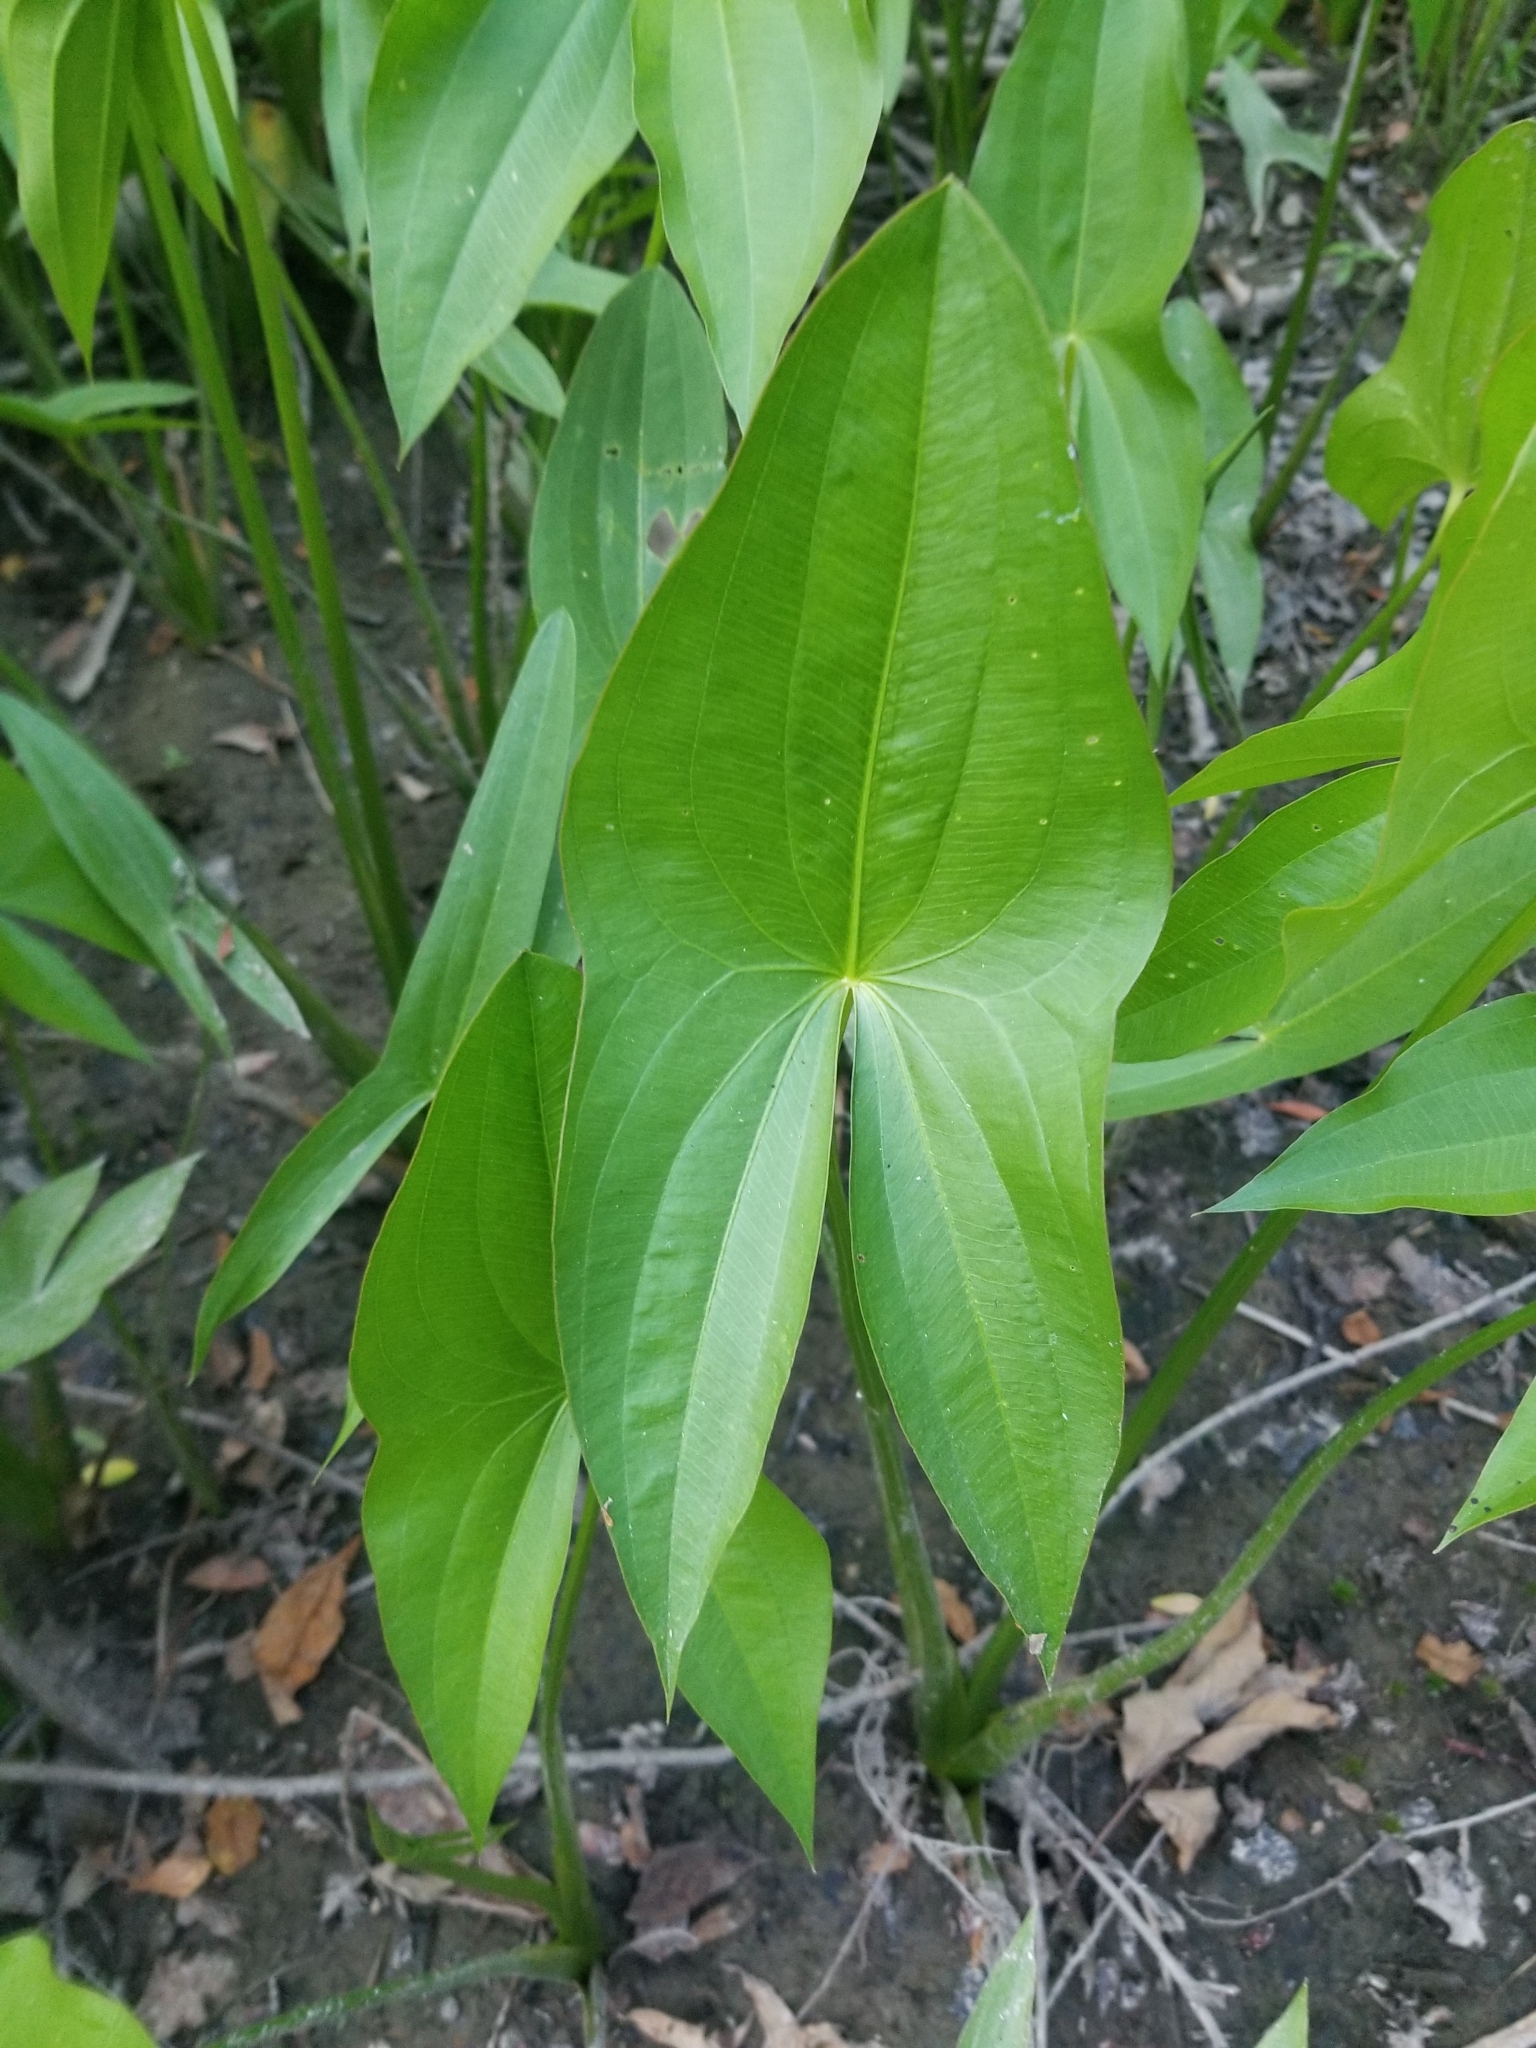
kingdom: Plantae
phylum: Tracheophyta
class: Liliopsida
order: Alismatales
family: Alismataceae
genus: Sagittaria
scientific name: Sagittaria latifolia
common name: Duck-potato
